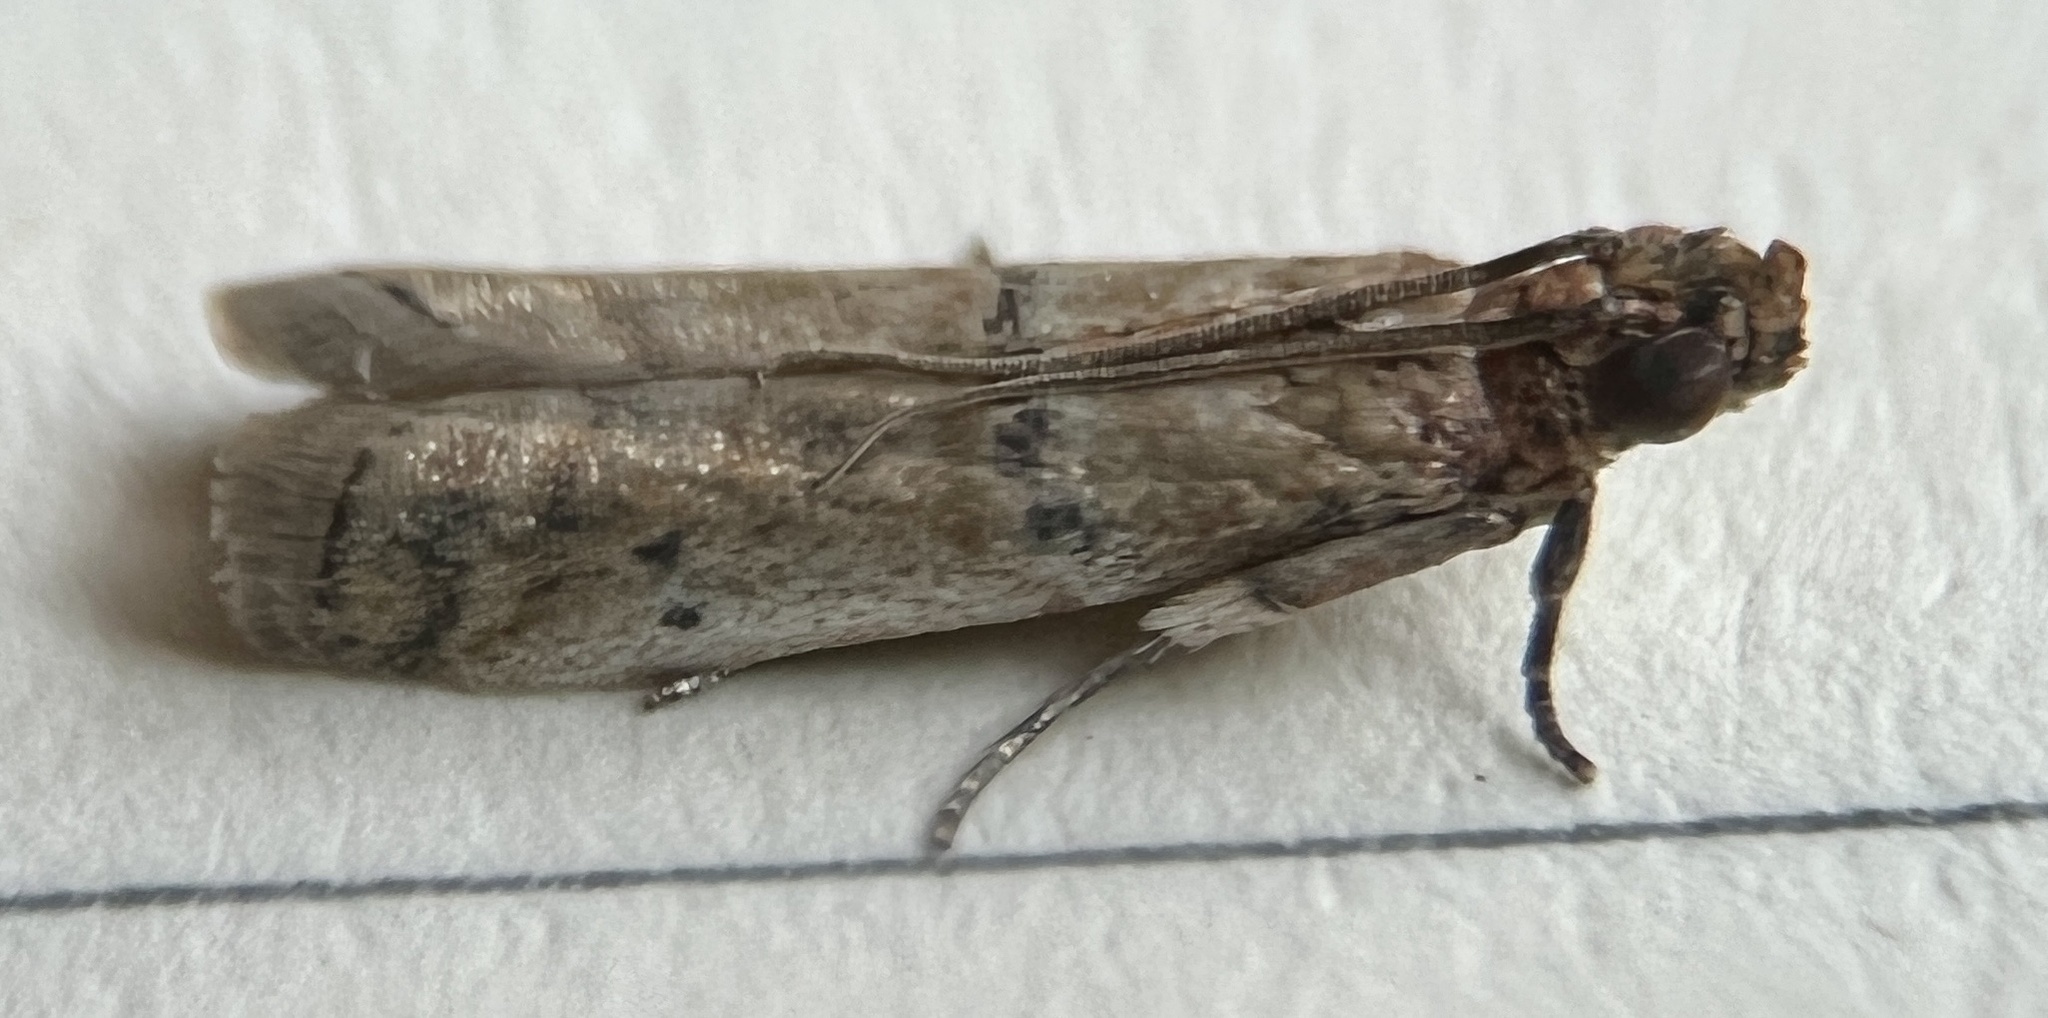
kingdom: Animalia
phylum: Arthropoda
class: Insecta
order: Lepidoptera
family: Pyralidae
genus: Atheloca
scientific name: Atheloca subrufella
